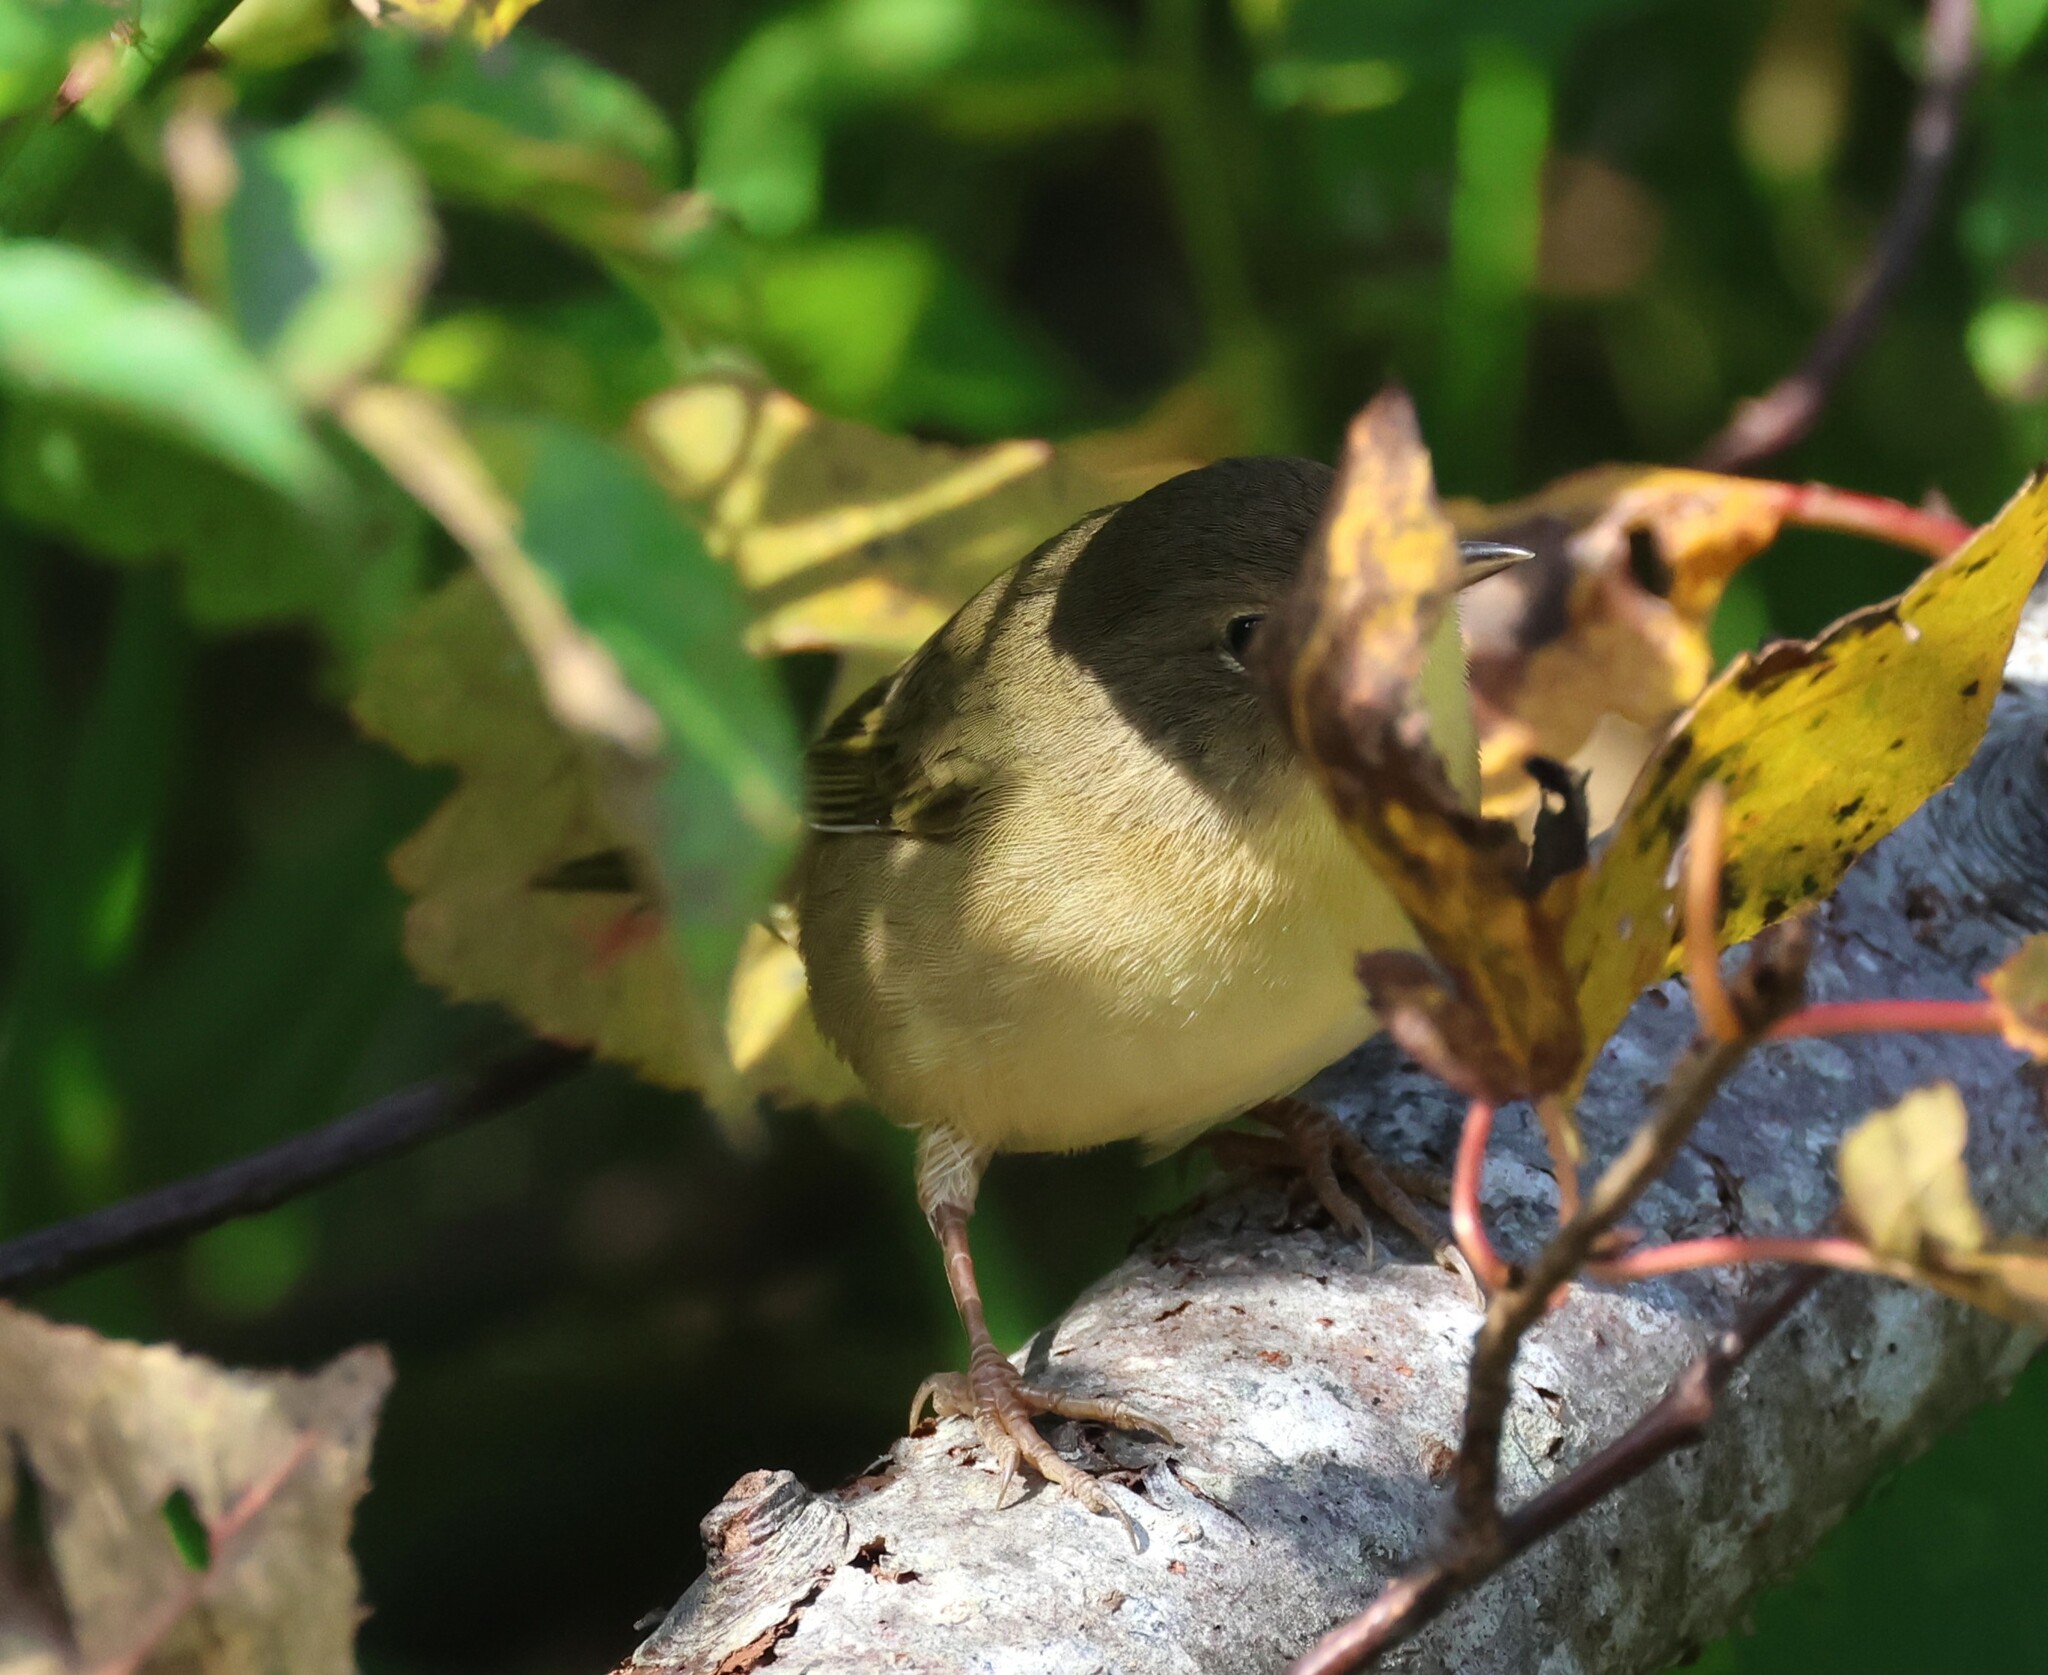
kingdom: Animalia
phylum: Chordata
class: Aves
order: Passeriformes
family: Parulidae
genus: Geothlypis
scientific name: Geothlypis trichas
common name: Common yellowthroat
